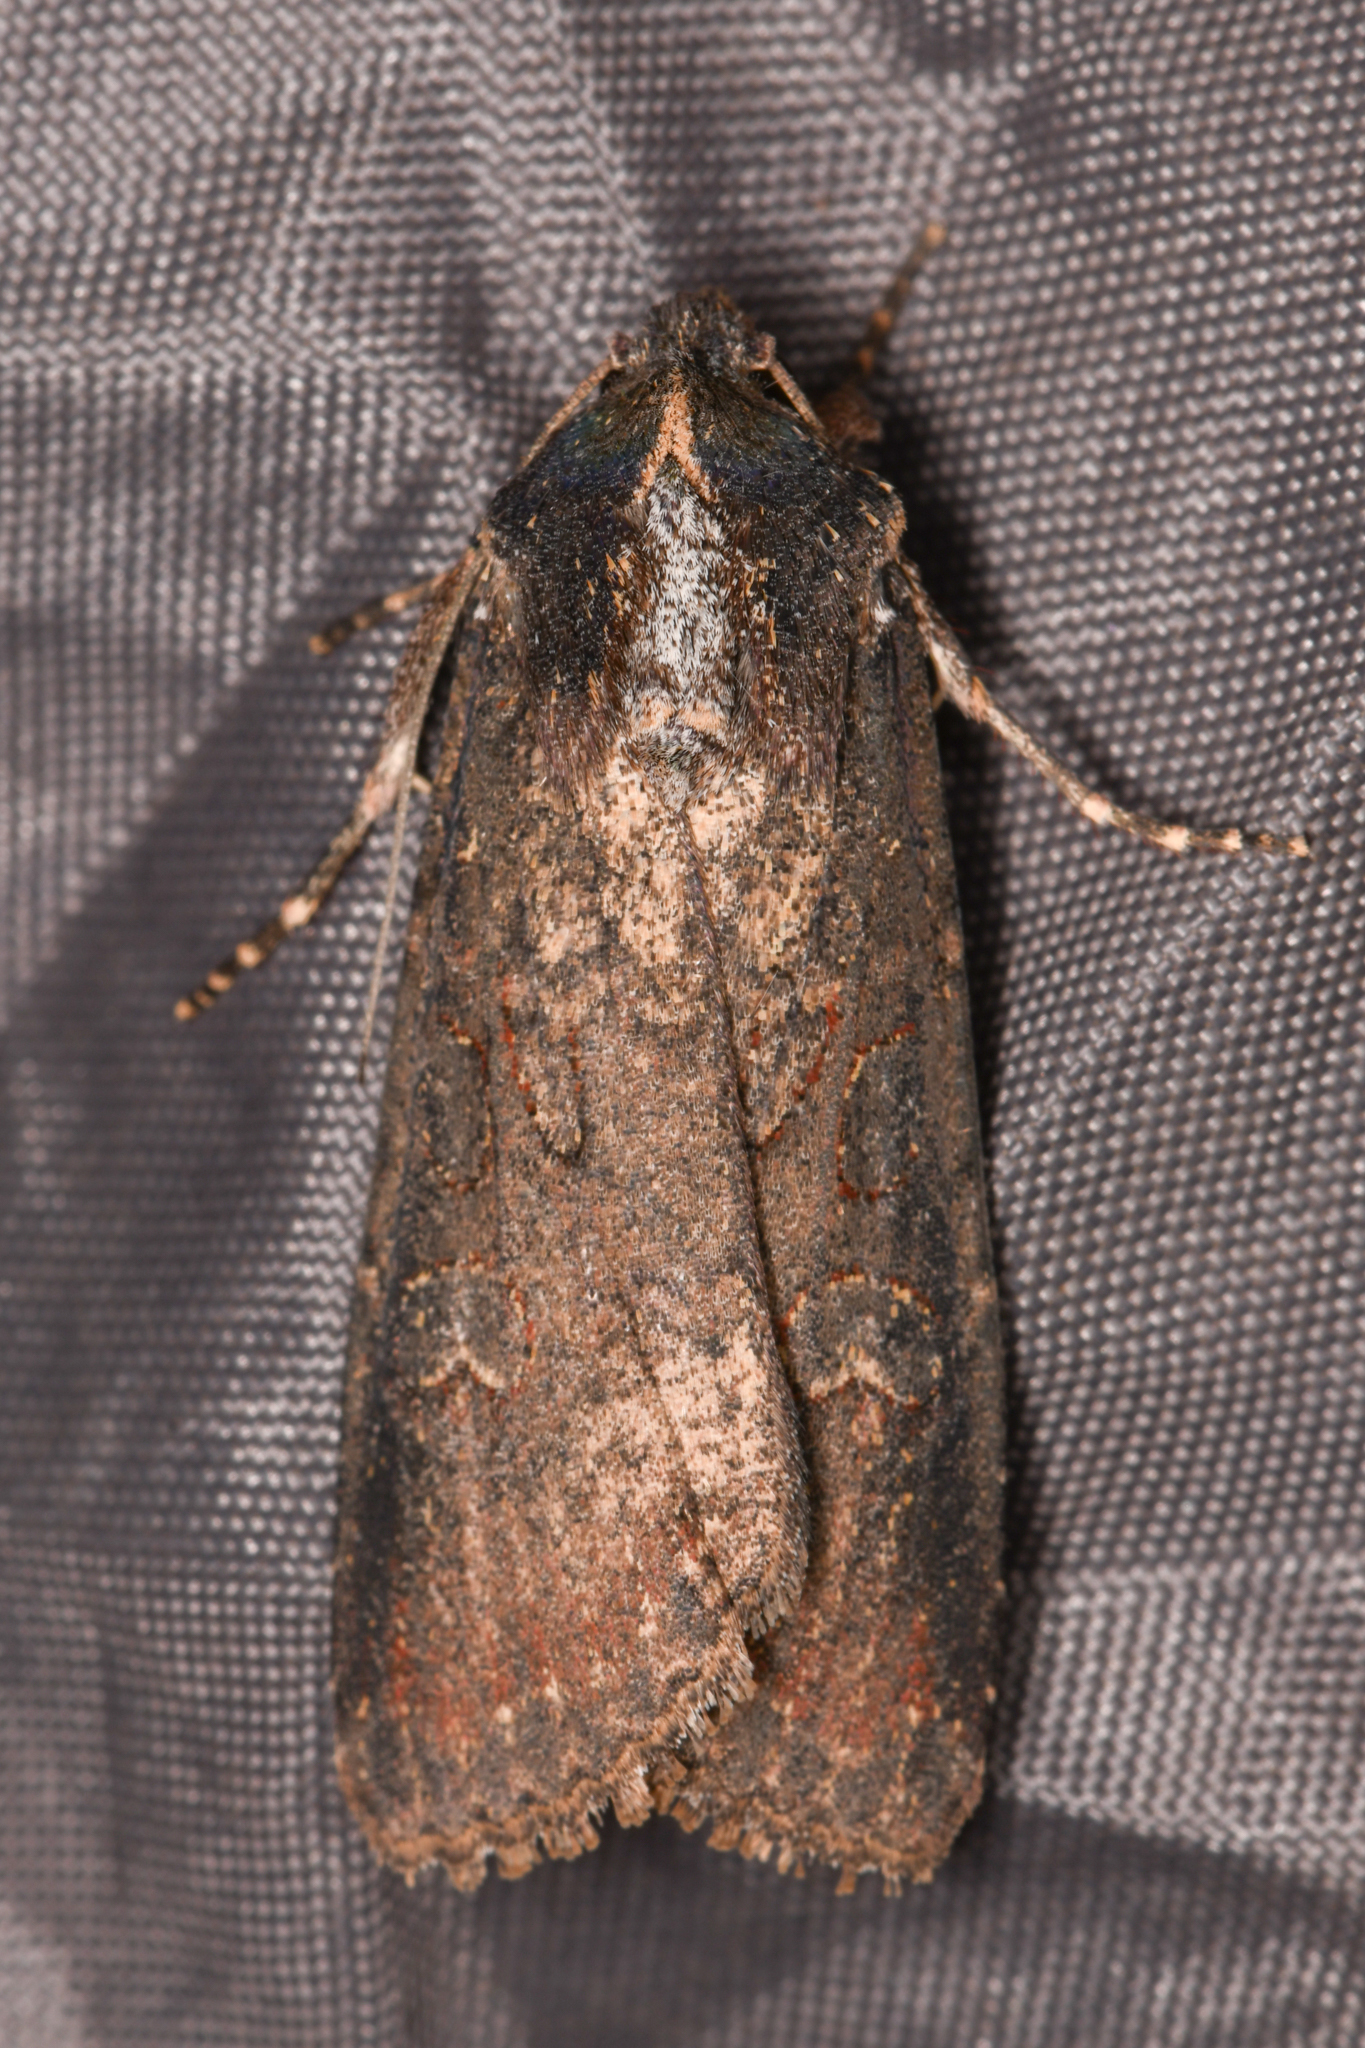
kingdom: Animalia
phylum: Arthropoda
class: Insecta
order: Lepidoptera
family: Noctuidae
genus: Peridroma
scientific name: Peridroma saucia
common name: Pearly underwing
